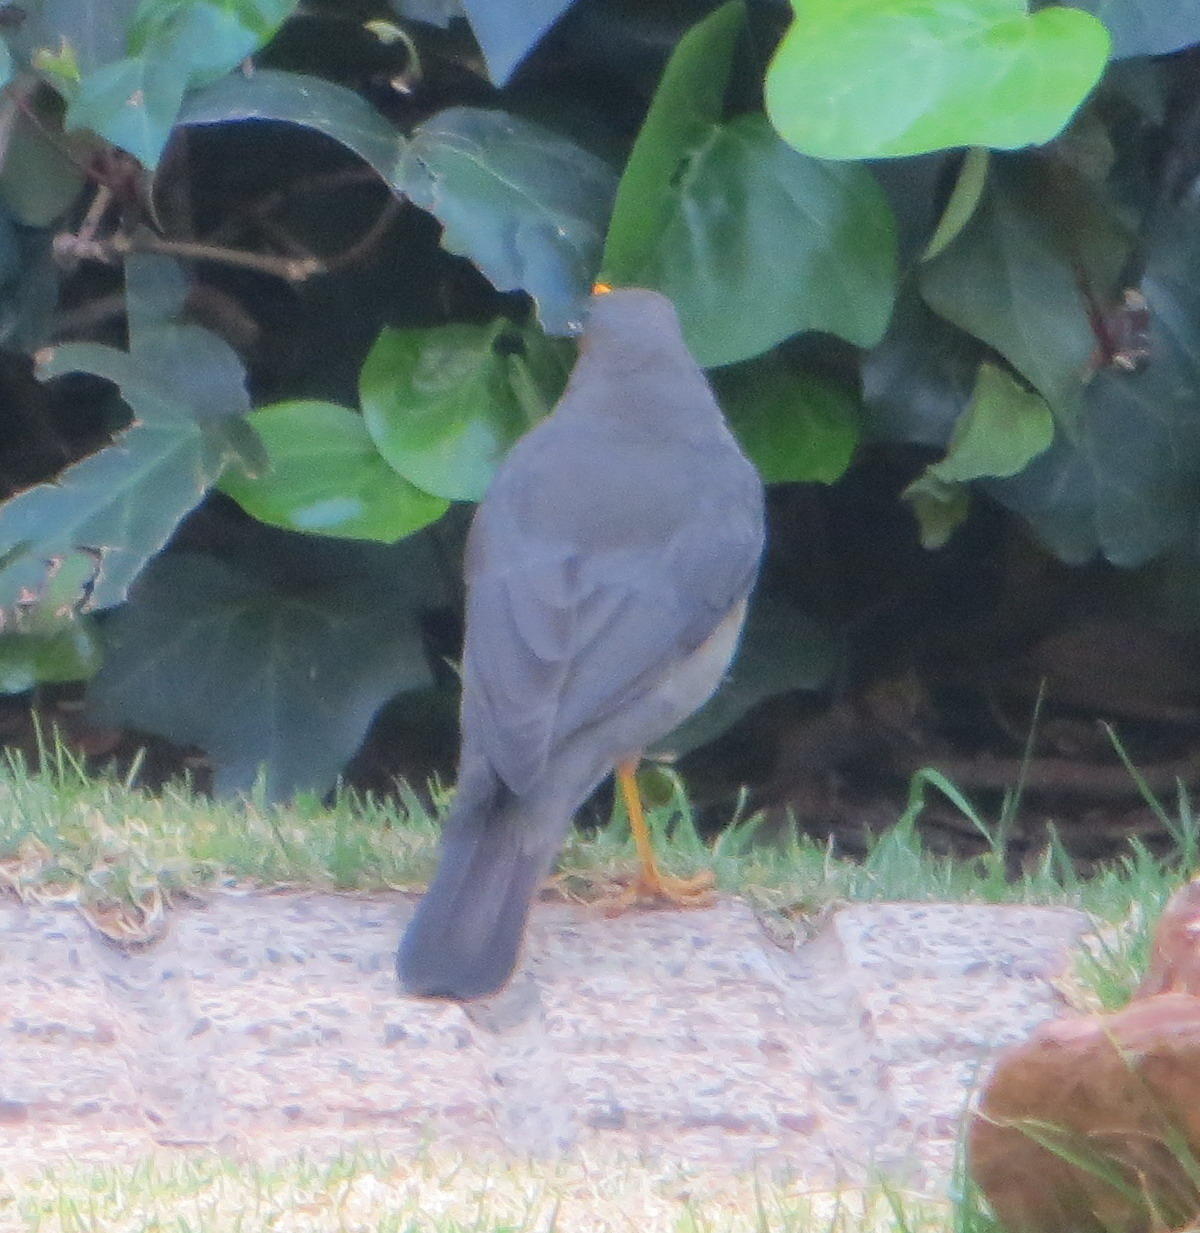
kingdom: Animalia
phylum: Chordata
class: Aves
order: Passeriformes
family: Turdidae
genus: Turdus
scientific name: Turdus smithi
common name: Karoo thrush
